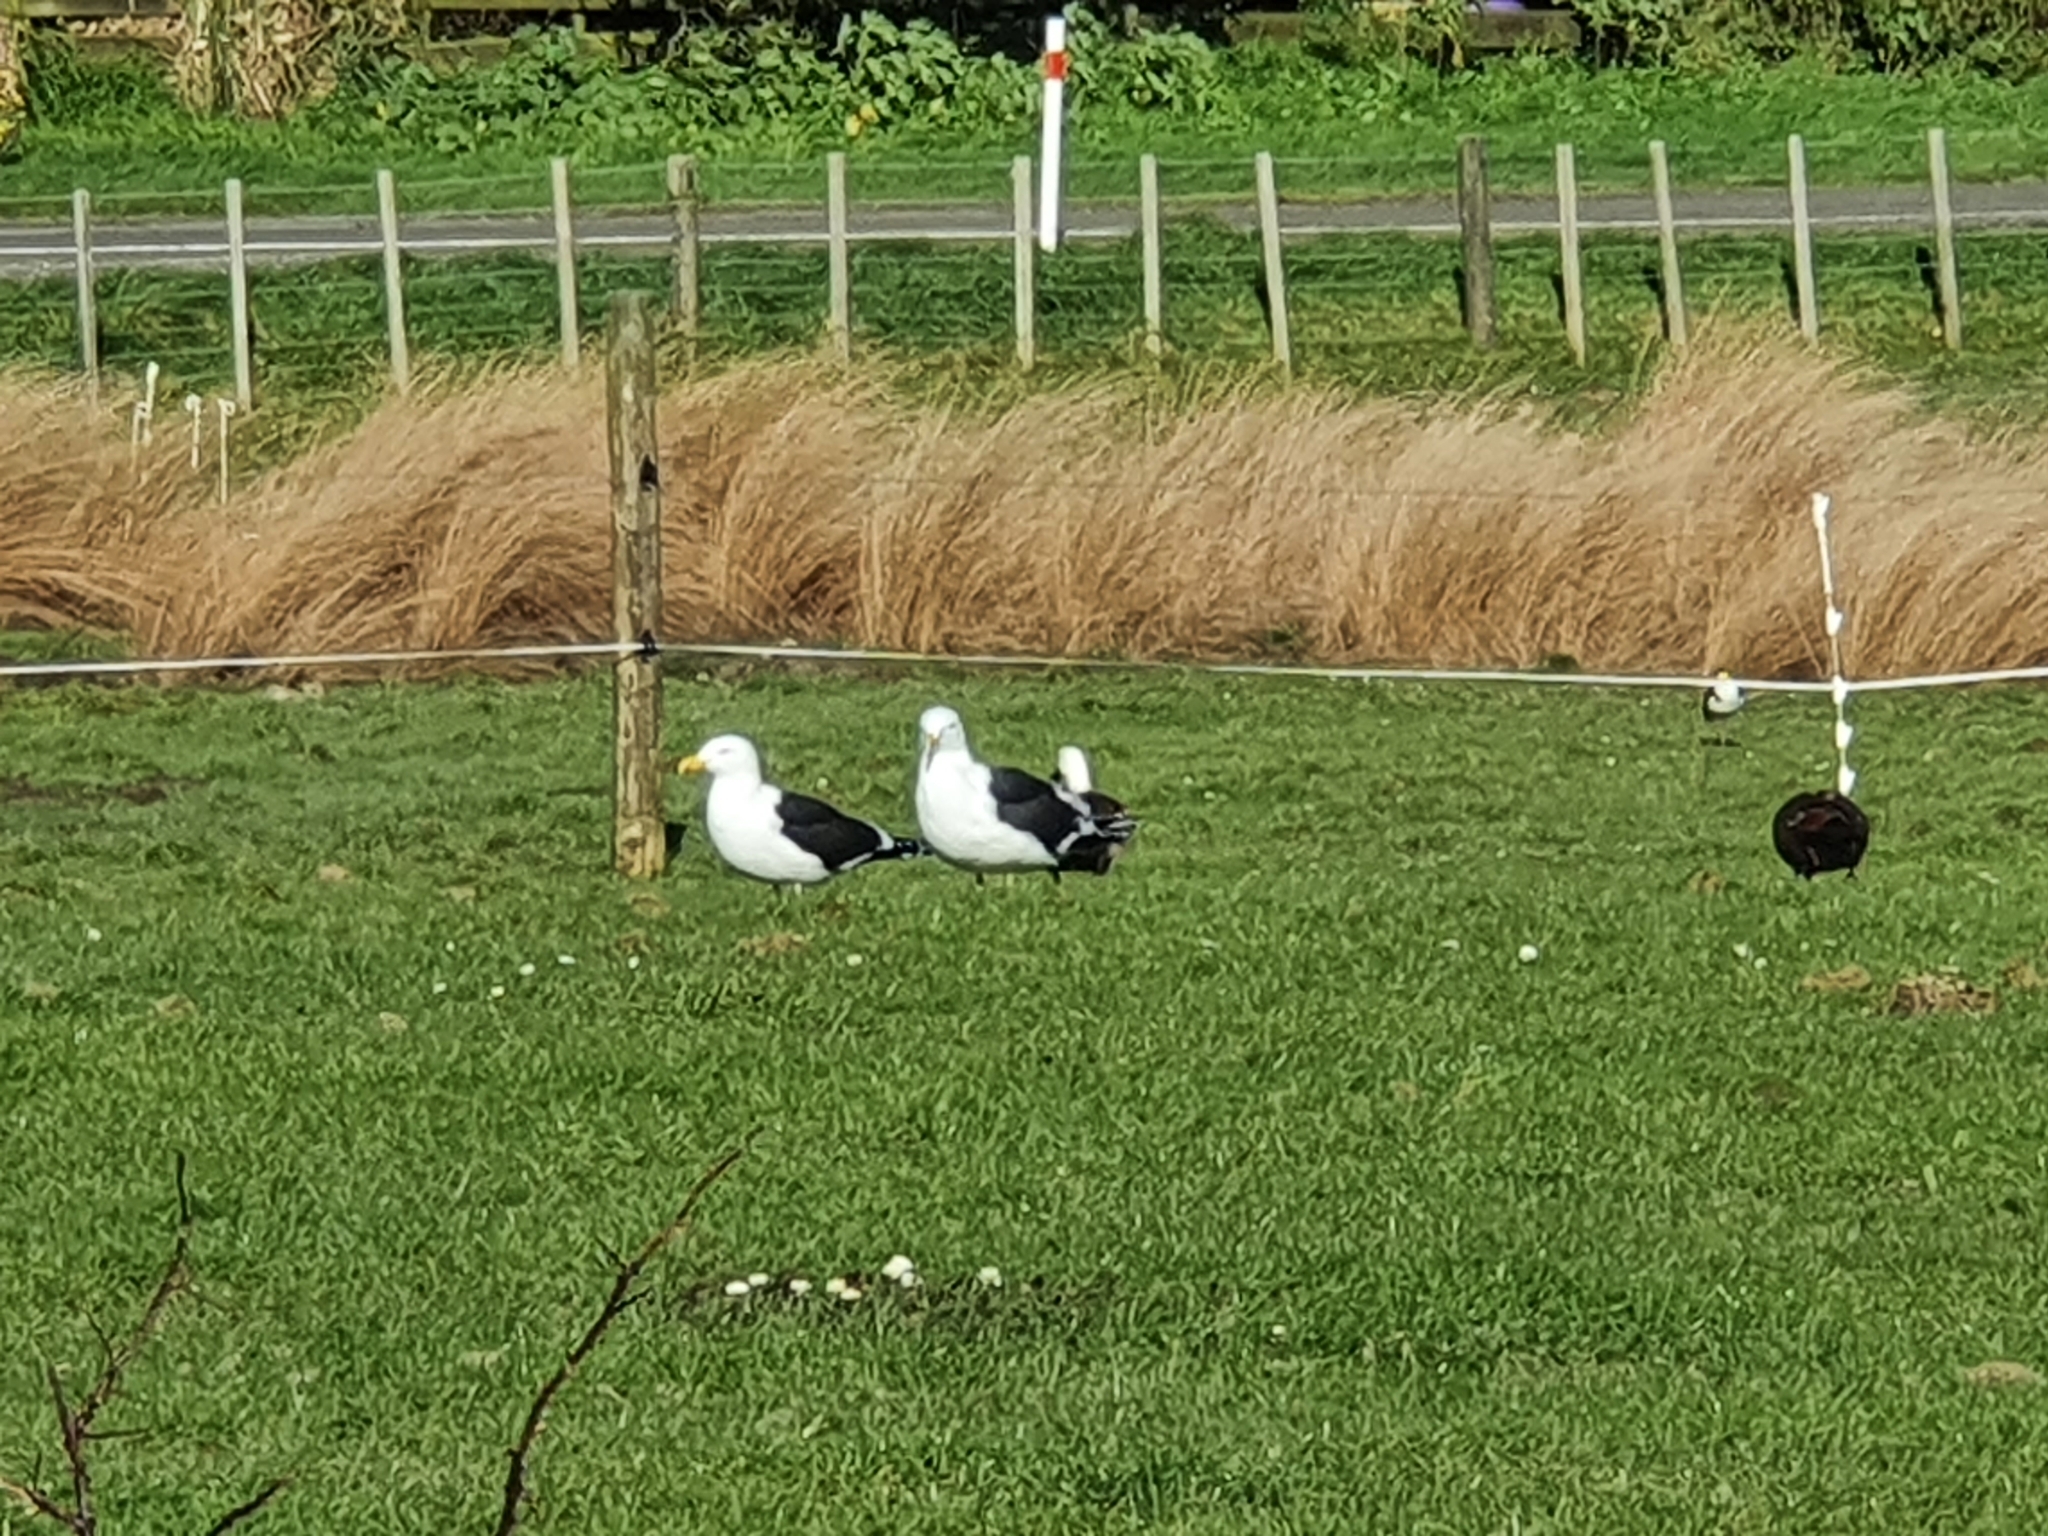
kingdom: Animalia
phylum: Chordata
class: Aves
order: Charadriiformes
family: Laridae
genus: Larus
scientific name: Larus dominicanus
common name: Kelp gull
